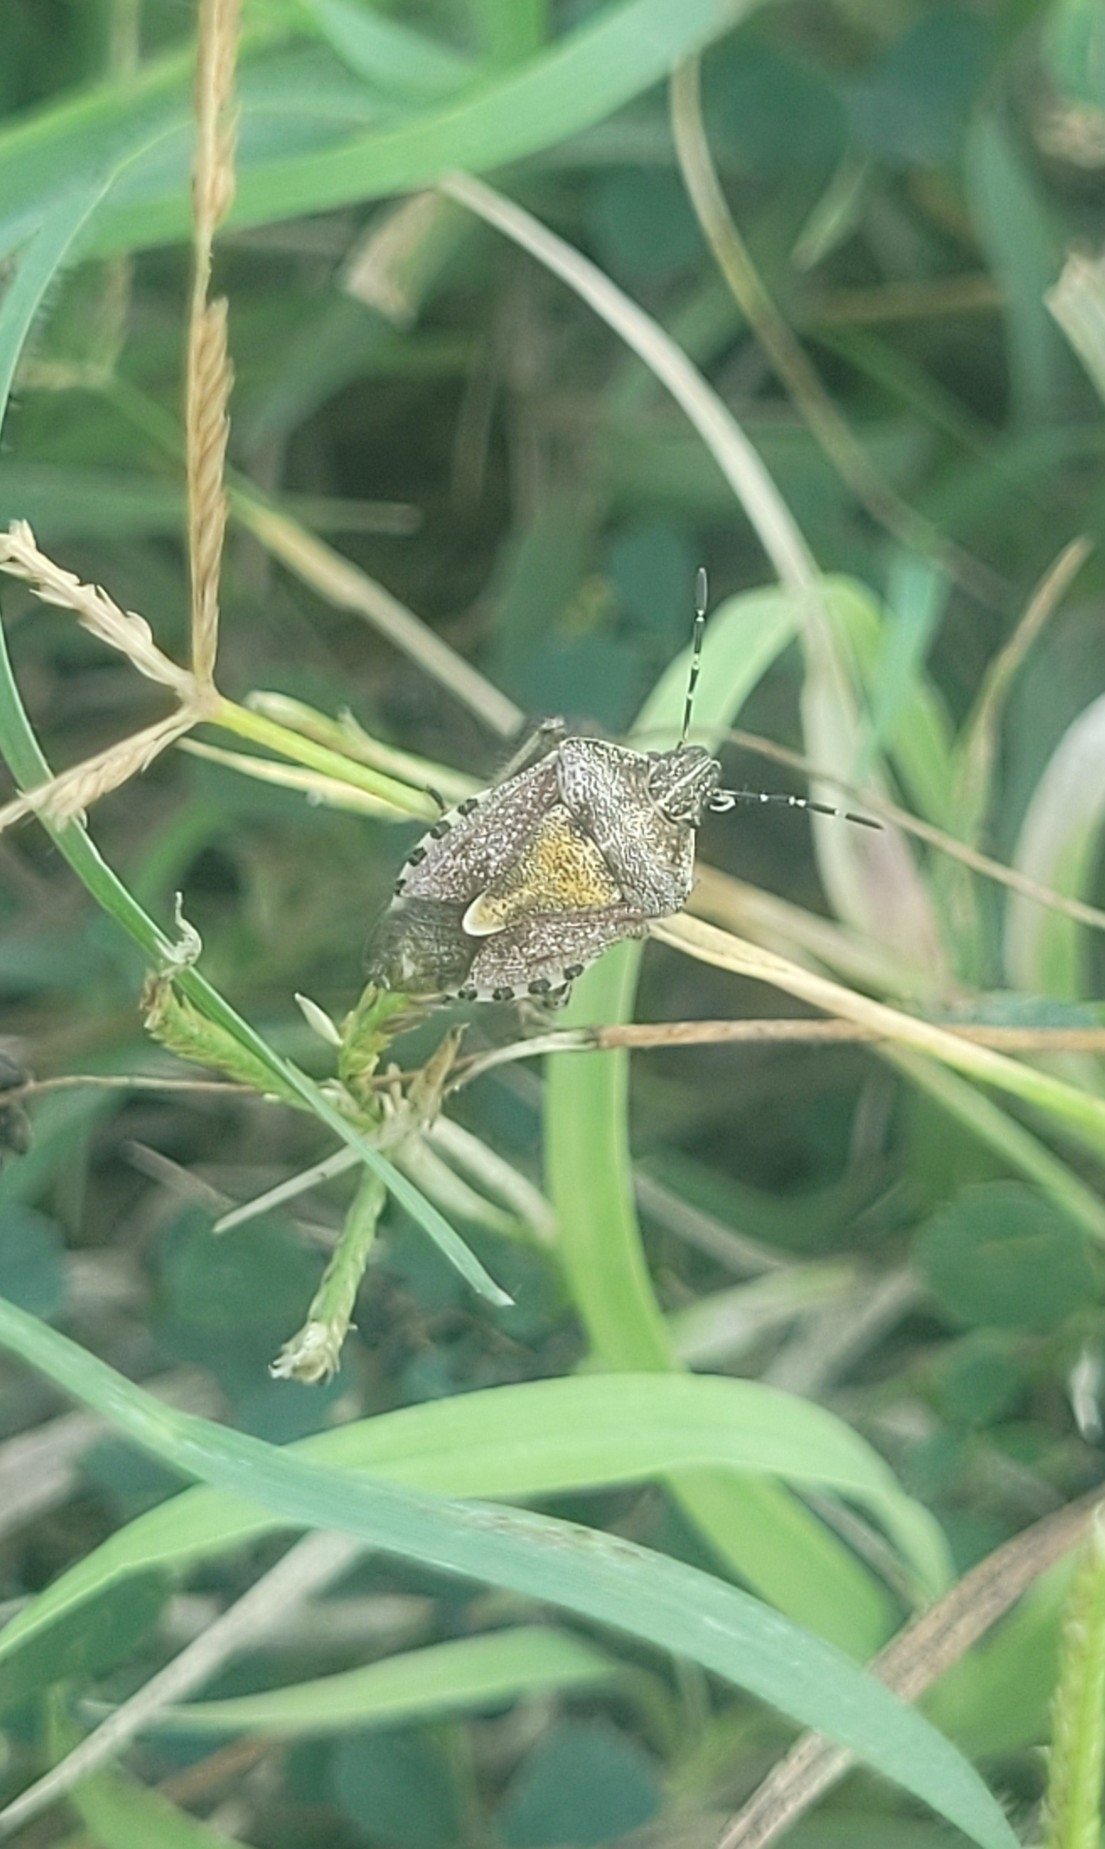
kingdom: Animalia
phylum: Arthropoda
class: Insecta
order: Hemiptera
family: Pentatomidae
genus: Dolycoris
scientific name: Dolycoris baccarum
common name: Sloe bug
